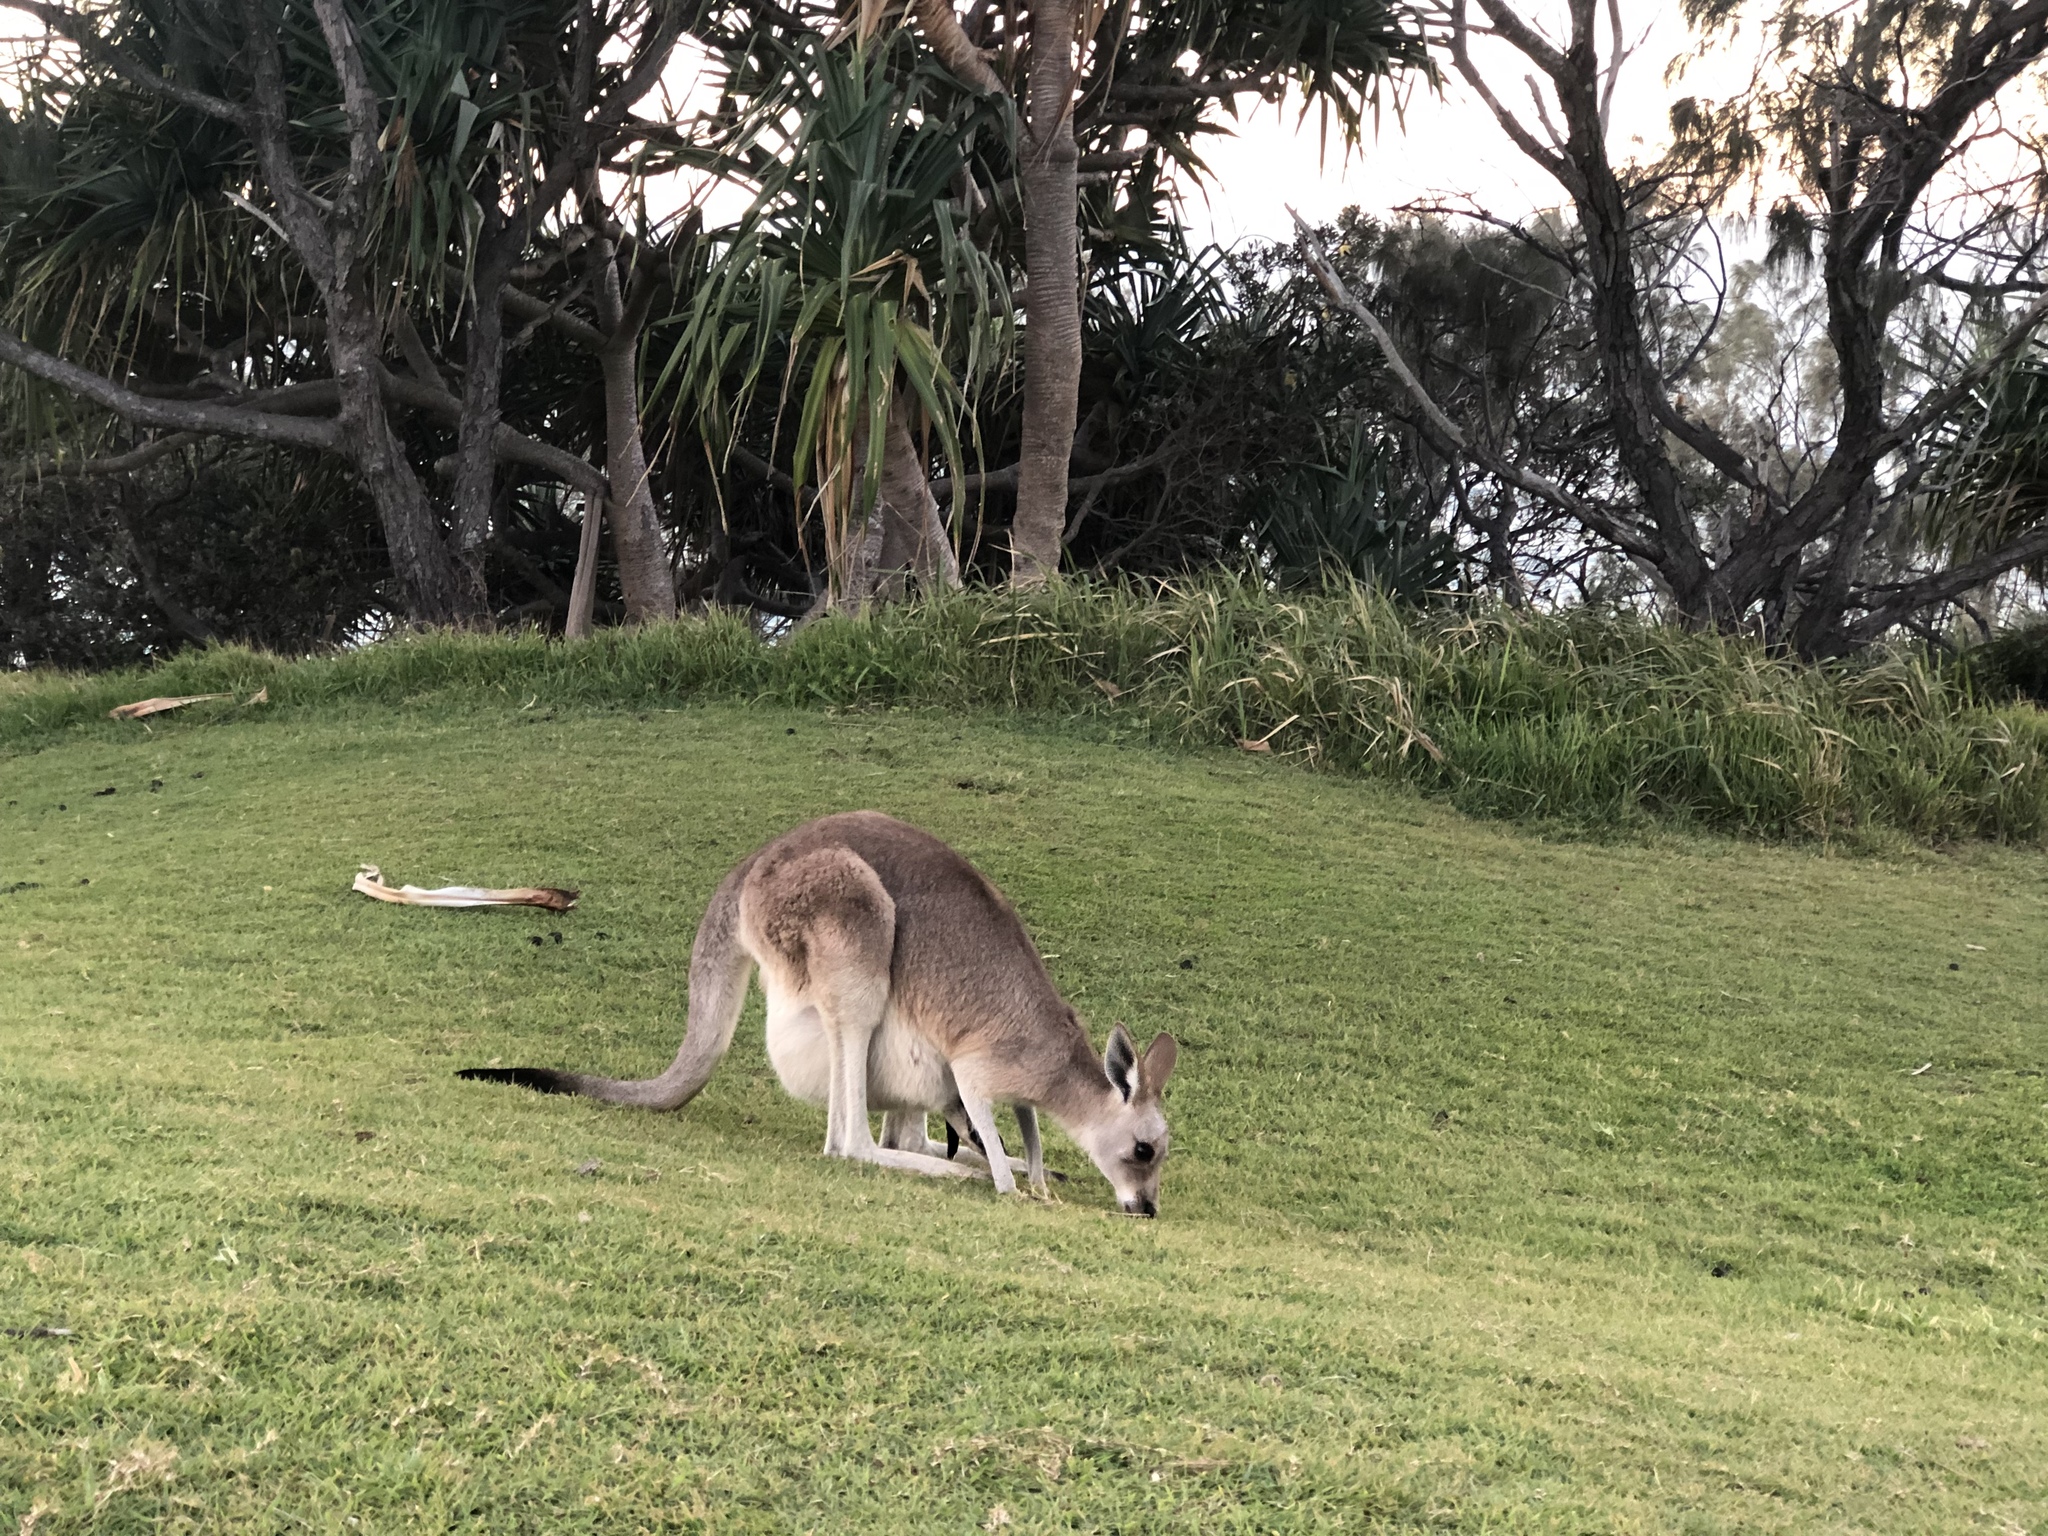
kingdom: Animalia
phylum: Chordata
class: Mammalia
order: Diprotodontia
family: Macropodidae
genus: Macropus
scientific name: Macropus giganteus
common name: Eastern grey kangaroo
